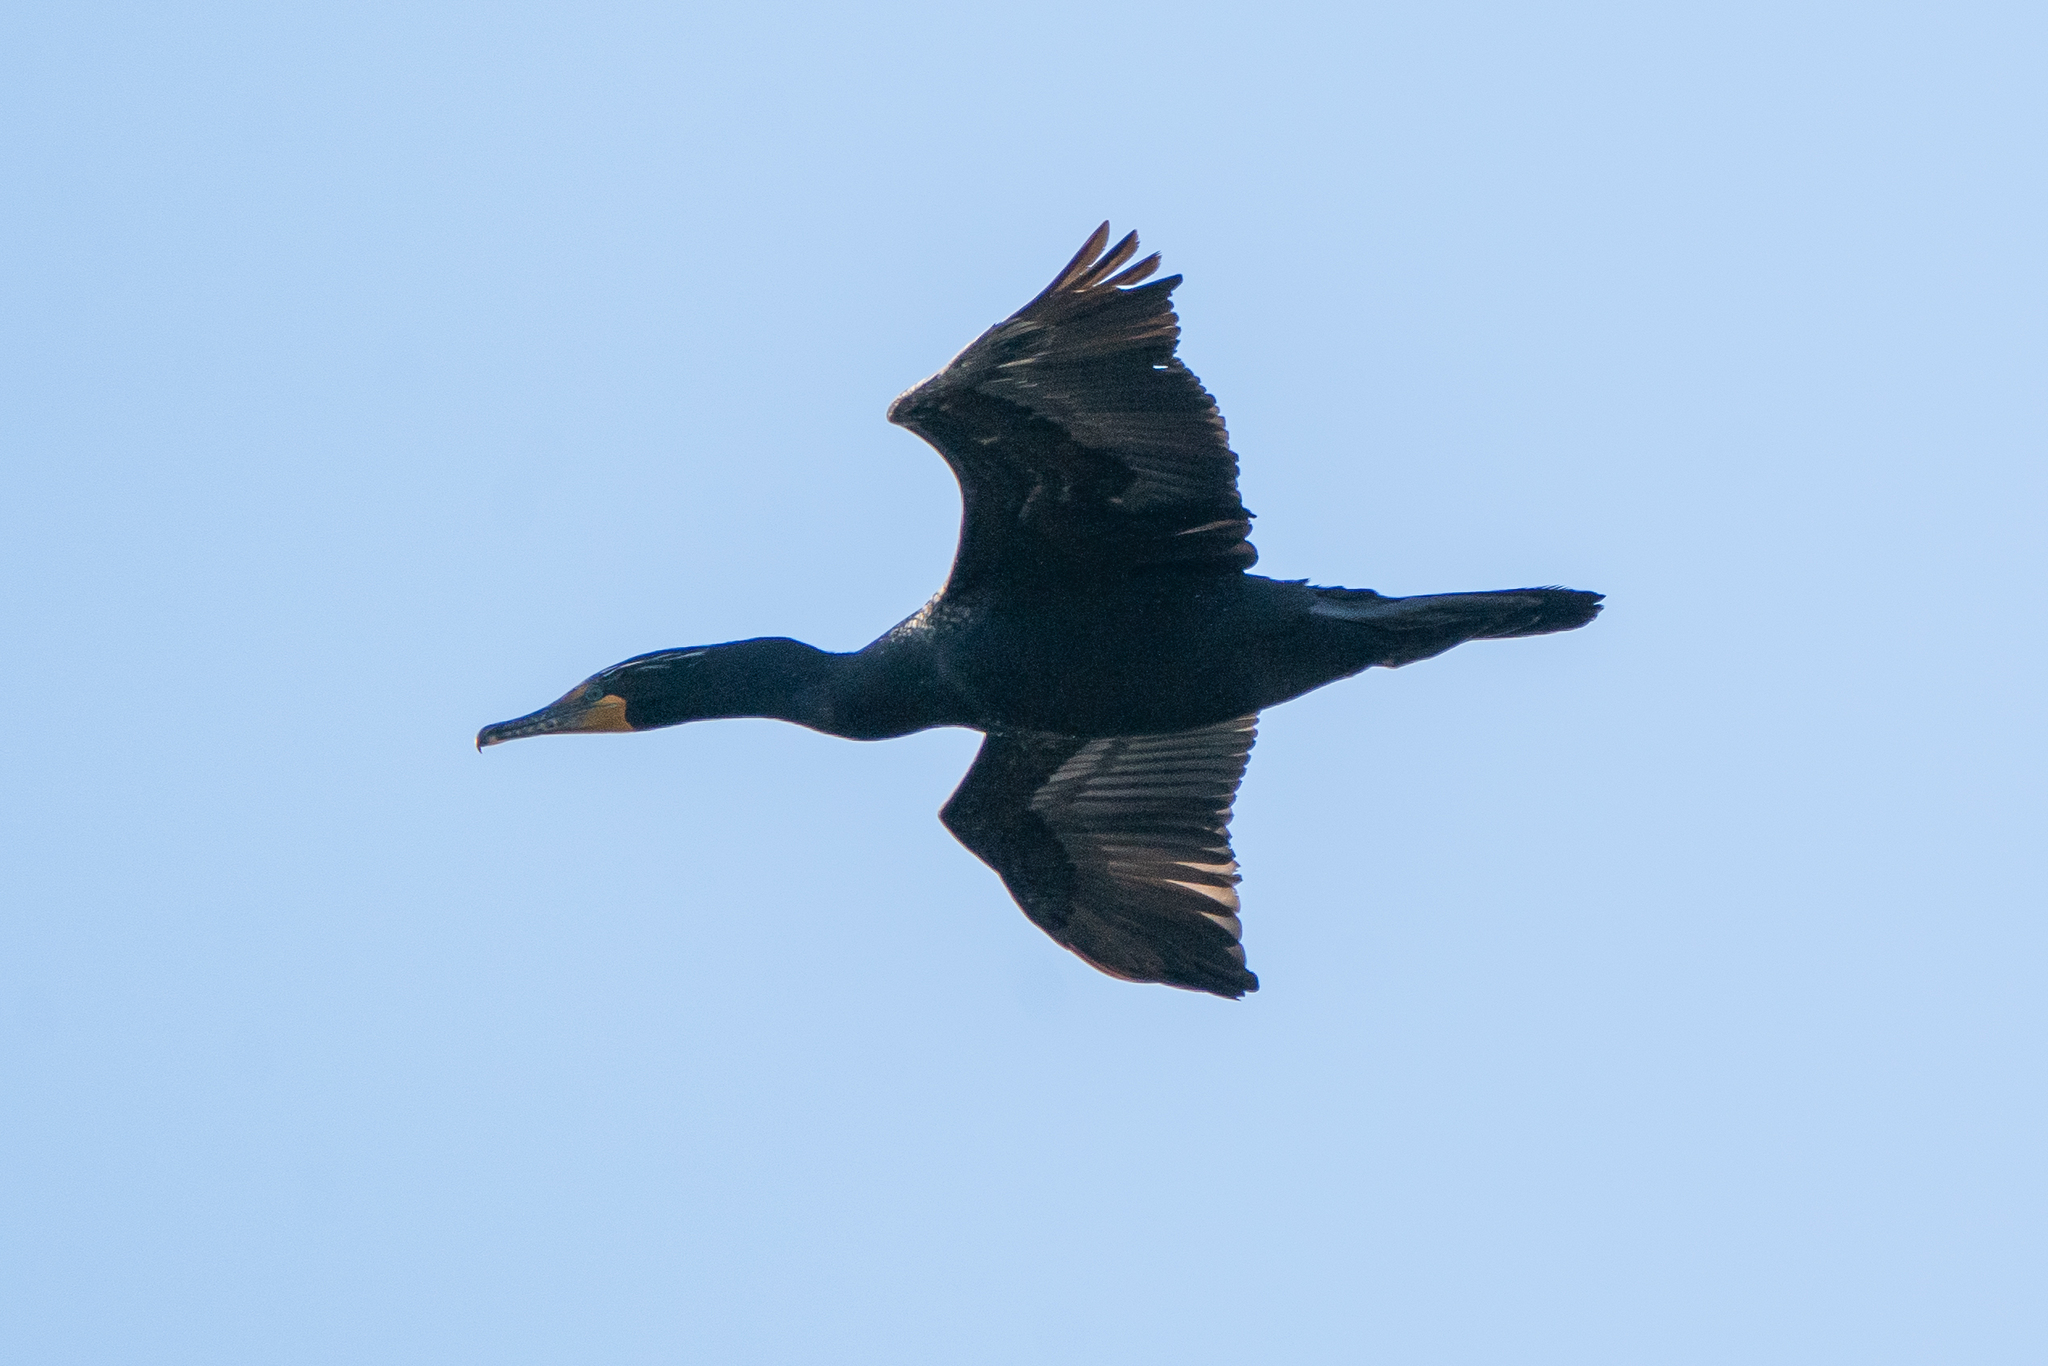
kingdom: Animalia
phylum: Chordata
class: Aves
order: Suliformes
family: Phalacrocoracidae
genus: Phalacrocorax
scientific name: Phalacrocorax auritus
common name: Double-crested cormorant
